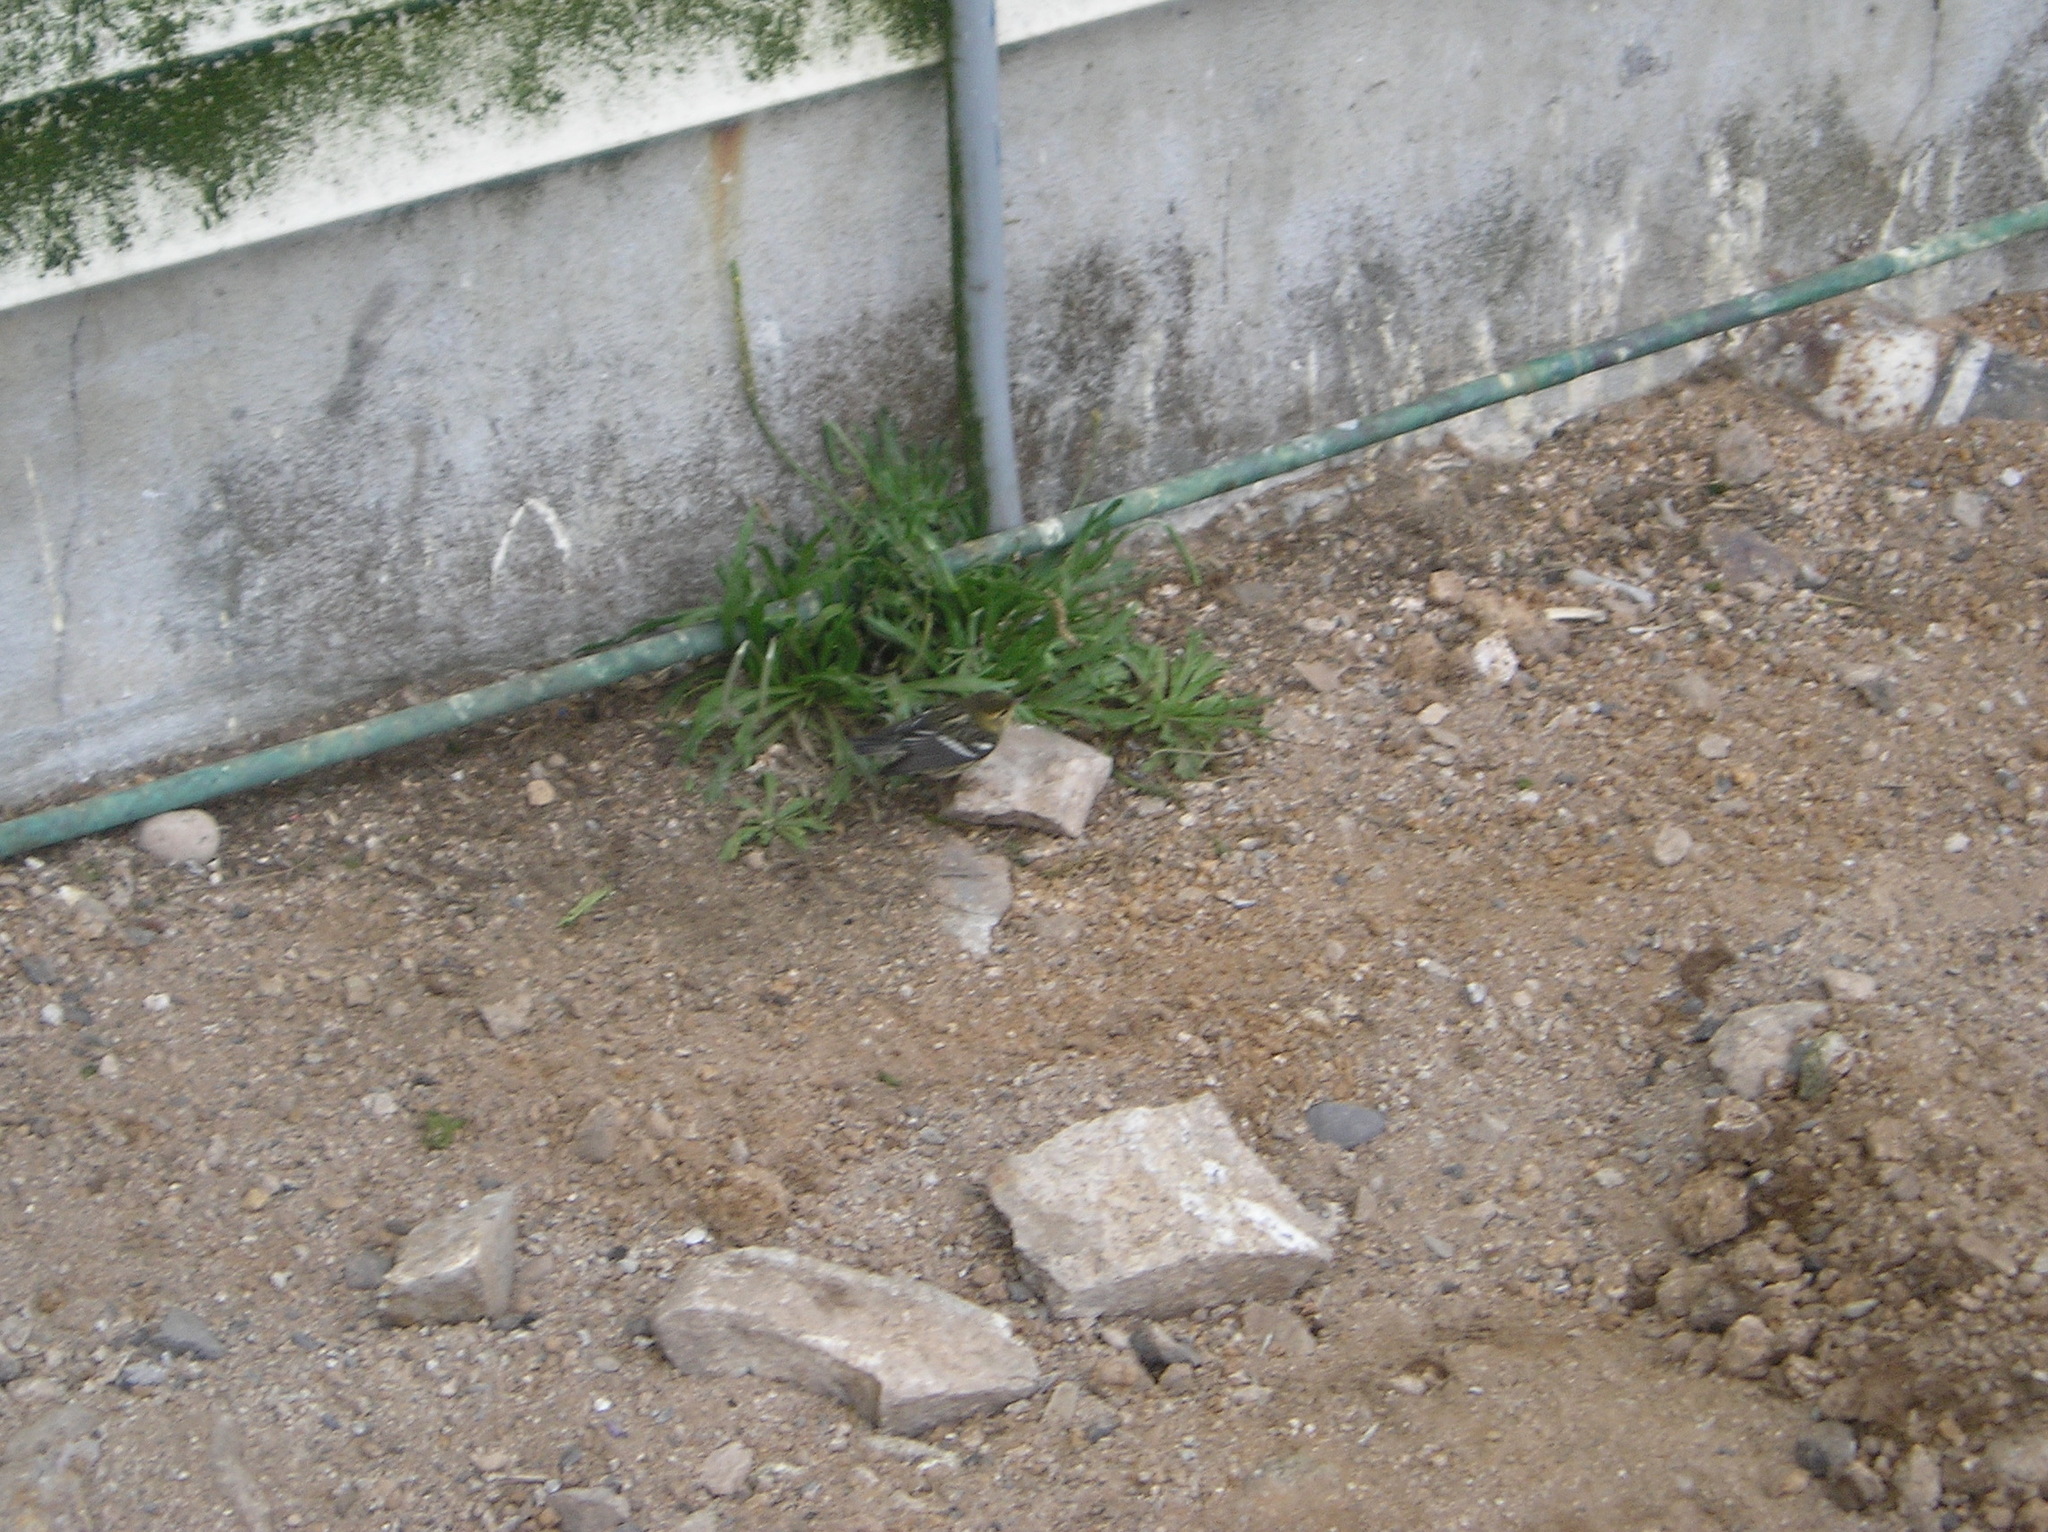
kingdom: Animalia
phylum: Chordata
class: Aves
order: Passeriformes
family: Parulidae
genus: Setophaga
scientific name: Setophaga fusca
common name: Blackburnian warbler
